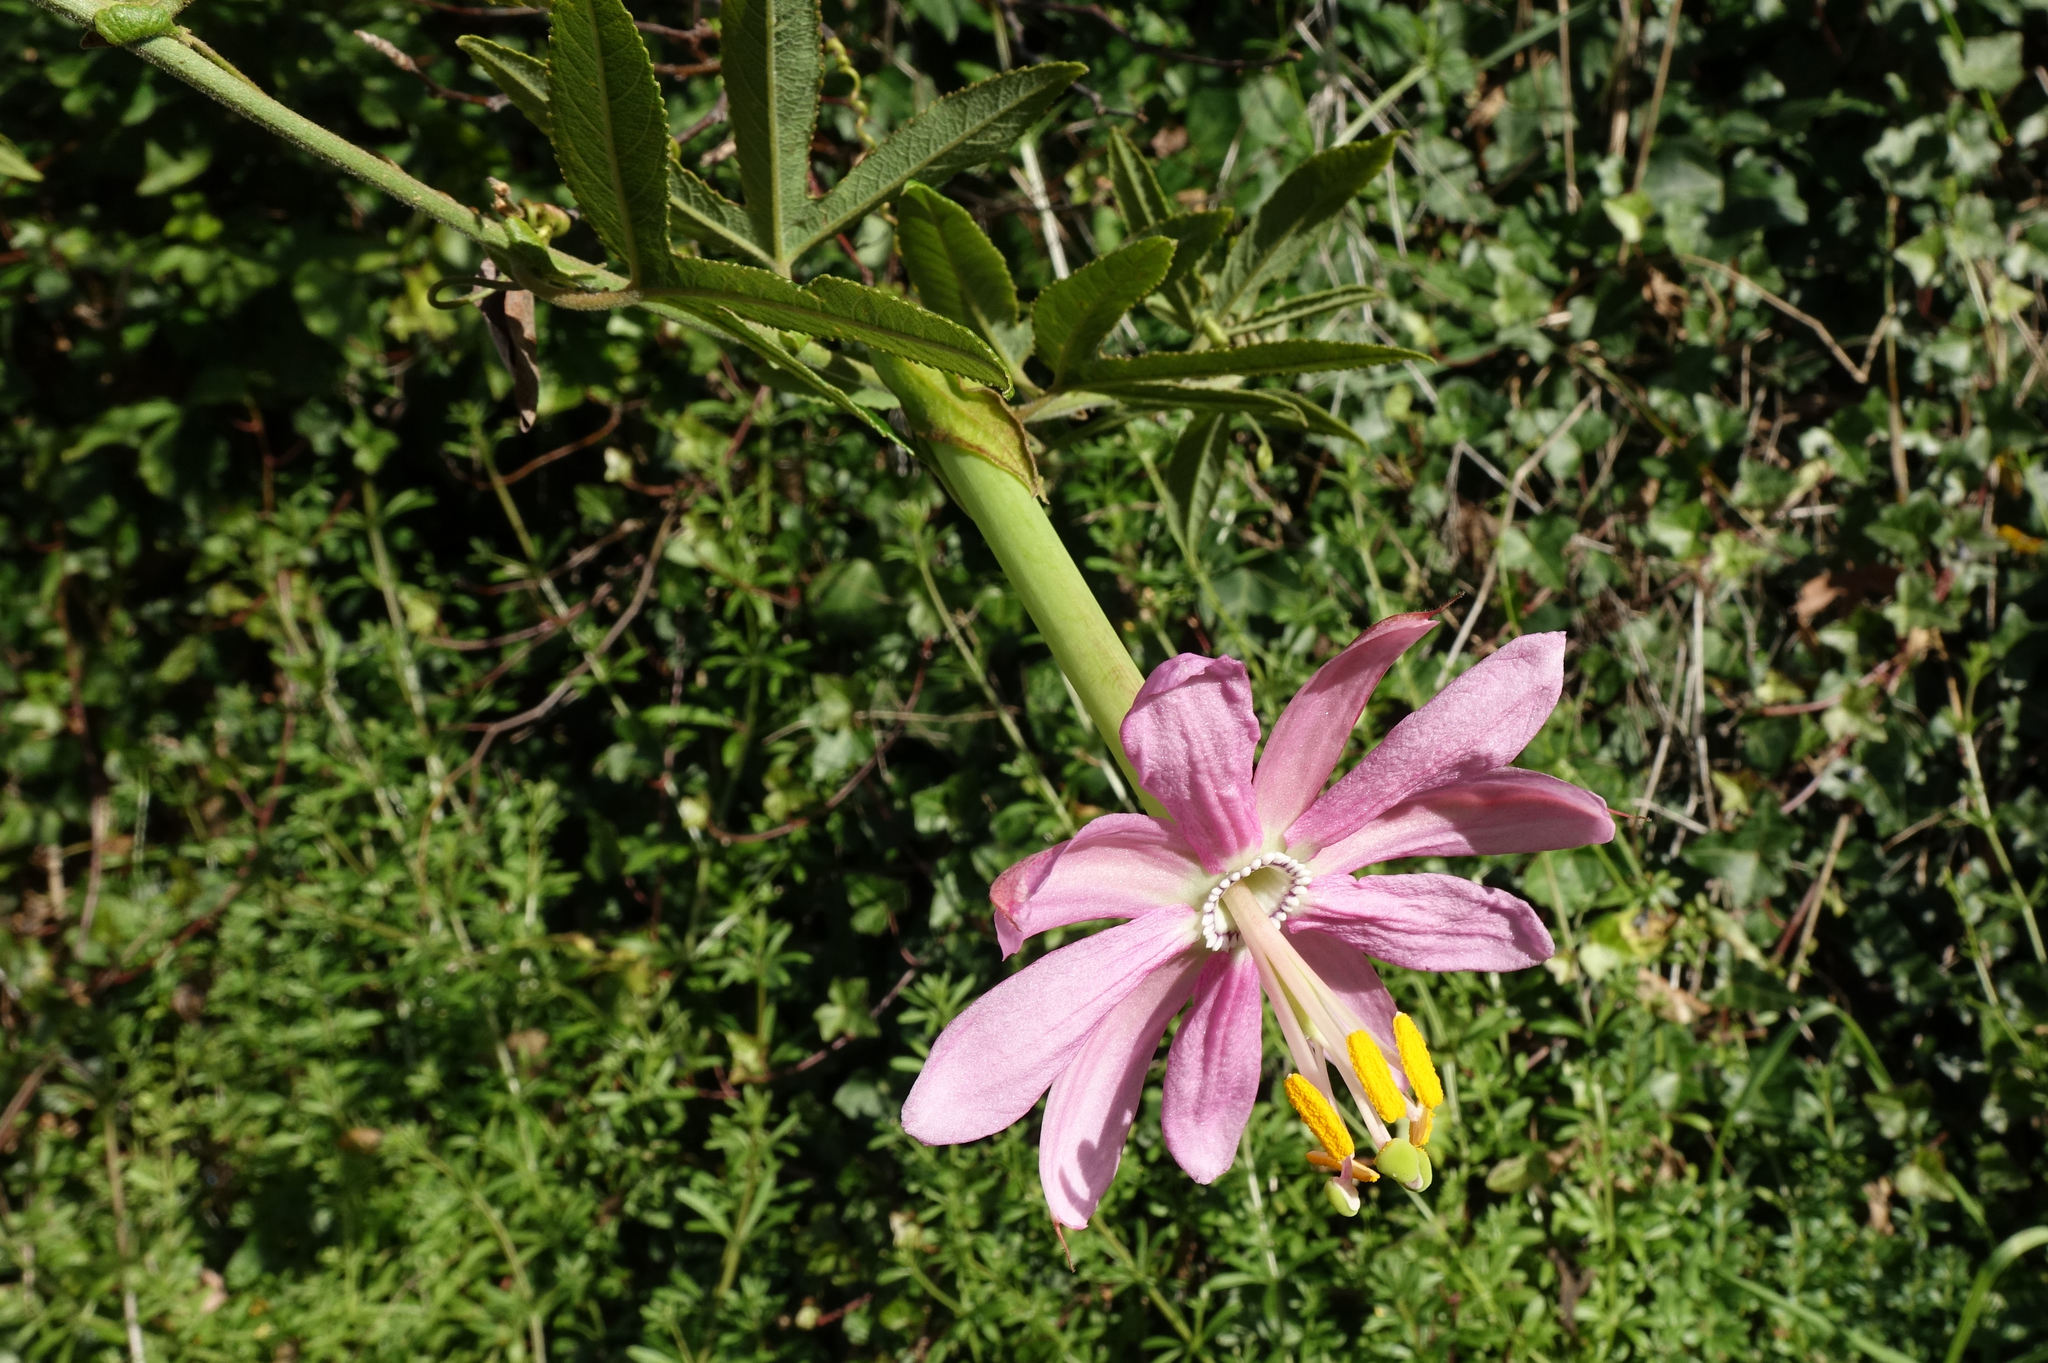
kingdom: Plantae
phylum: Tracheophyta
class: Magnoliopsida
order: Malpighiales
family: Passifloraceae
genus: Passiflora
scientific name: Passiflora tripartita
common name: Banana poka
